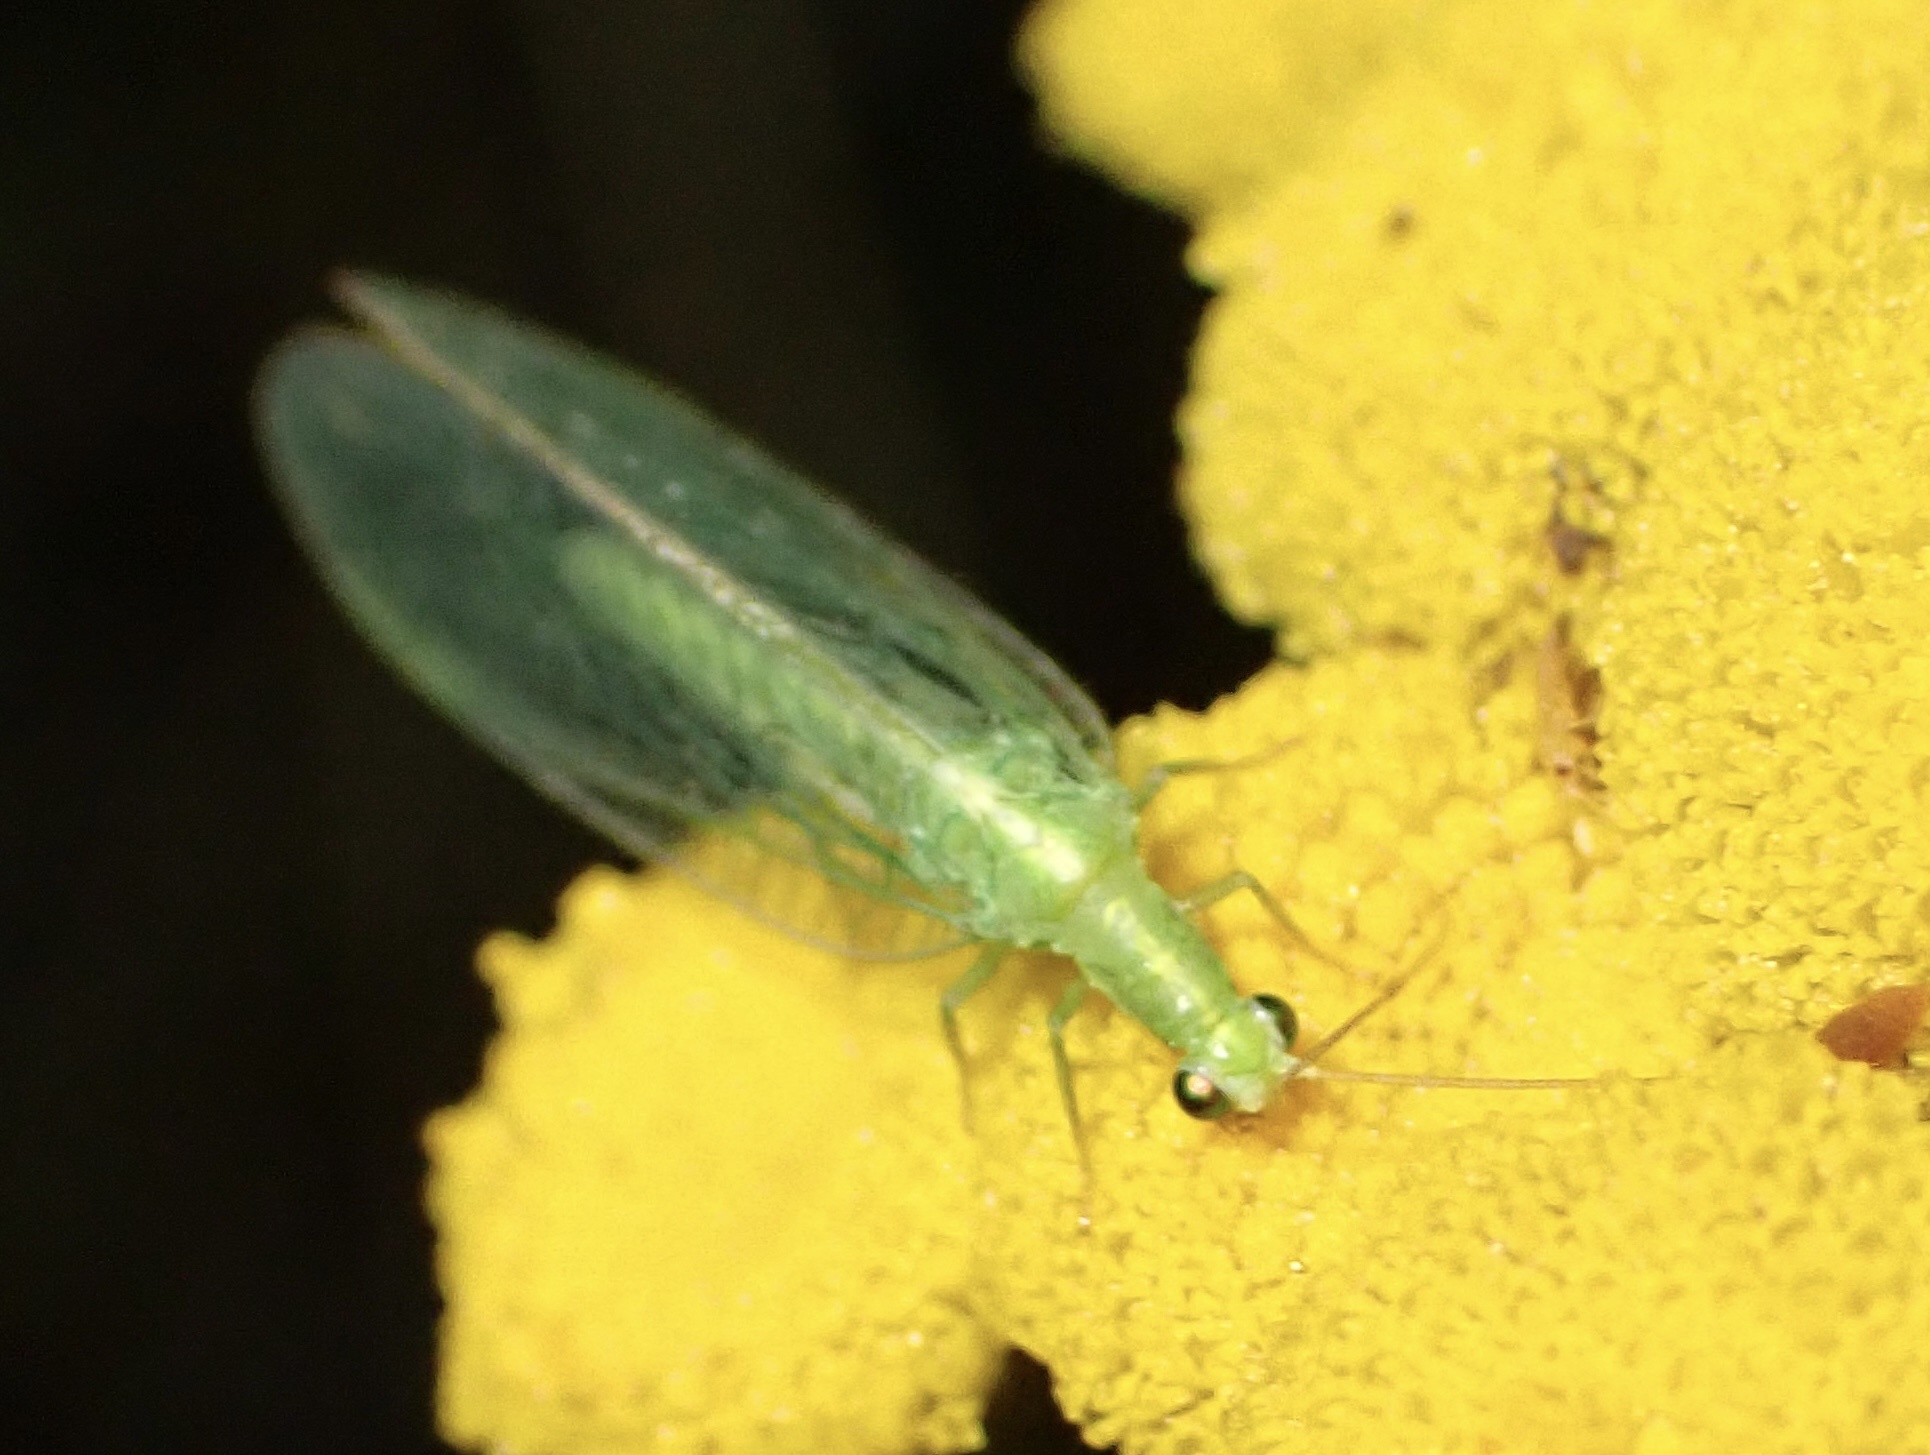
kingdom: Animalia
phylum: Arthropoda
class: Insecta
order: Neuroptera
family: Chrysopidae
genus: Chrysoperla
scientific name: Chrysoperla
